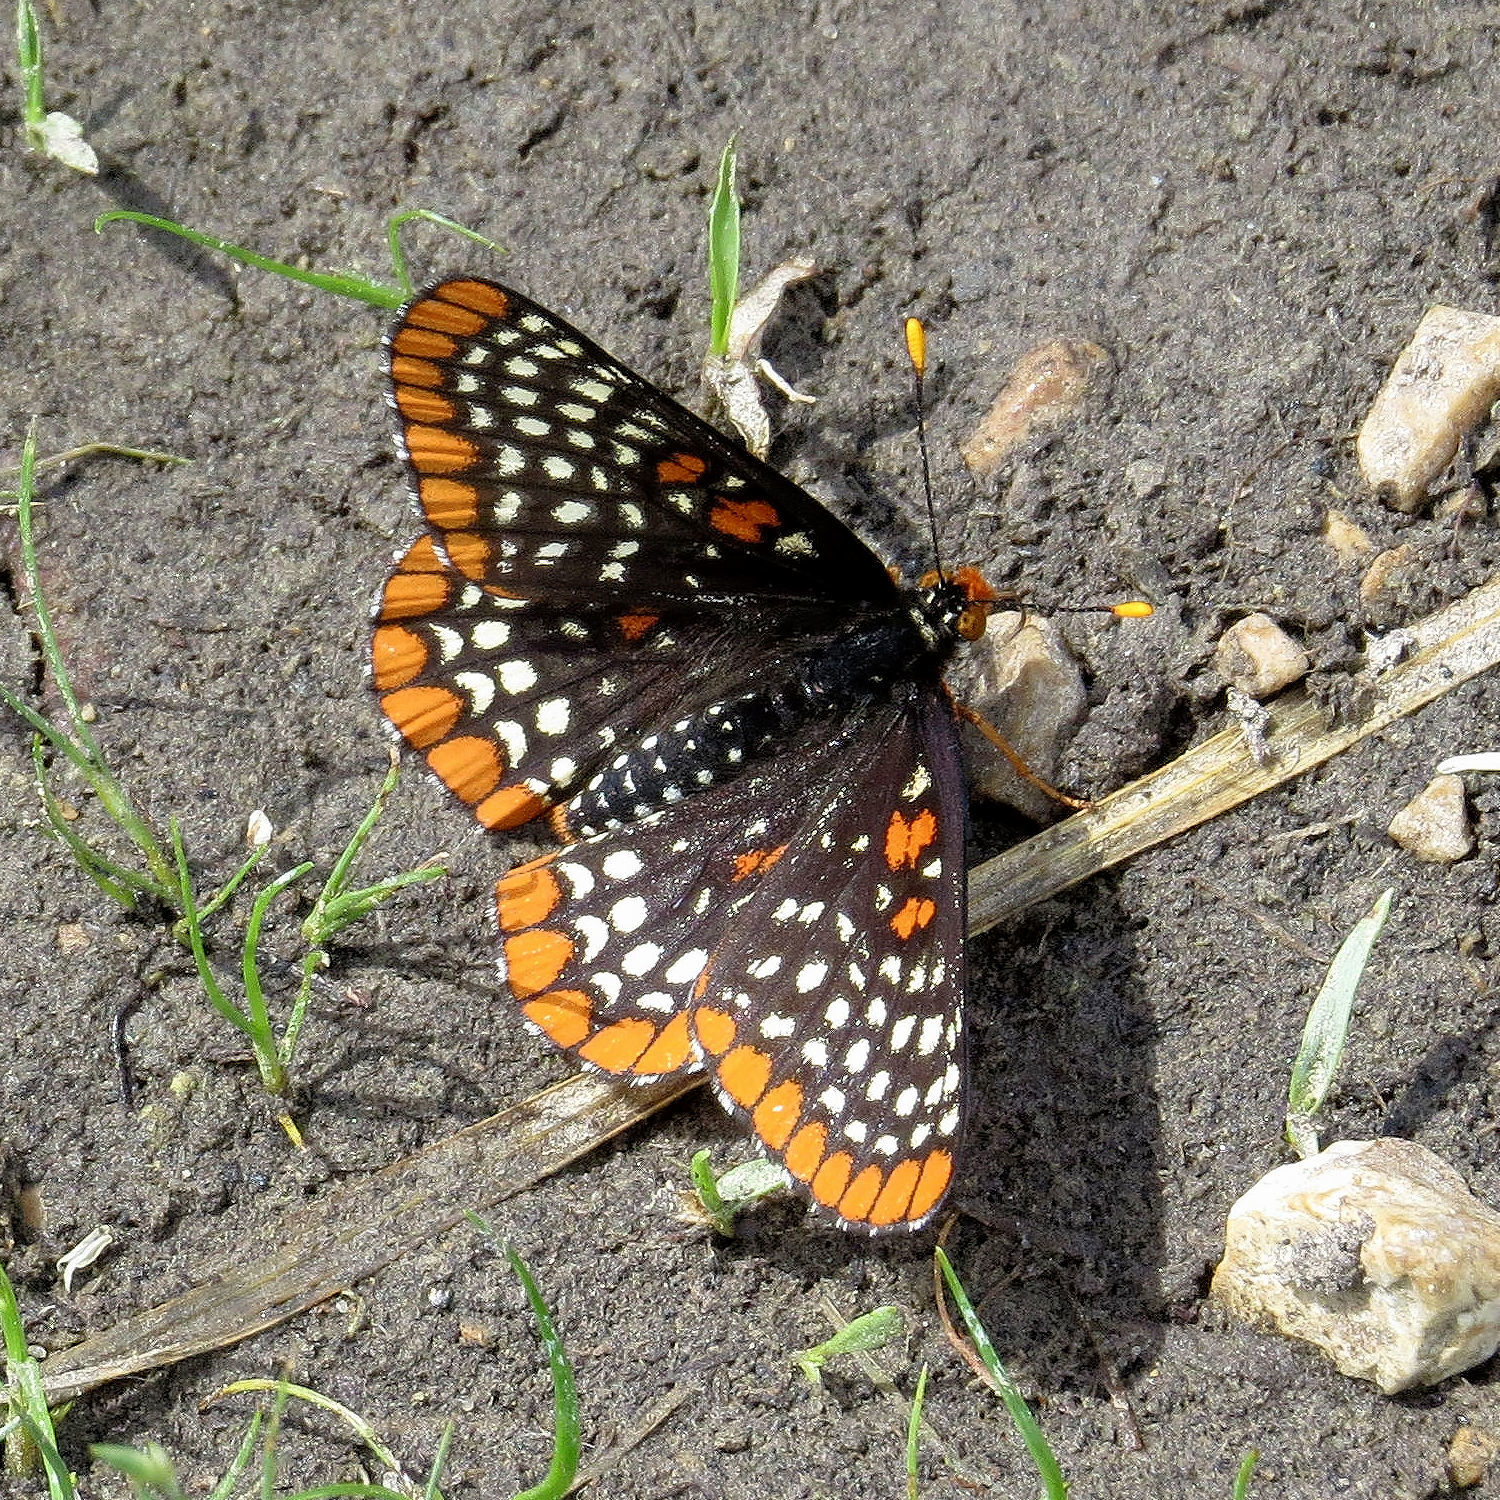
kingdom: Animalia
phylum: Arthropoda
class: Insecta
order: Lepidoptera
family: Nymphalidae
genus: Euphydryas
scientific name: Euphydryas phaeton
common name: Baltimore checkerspot
